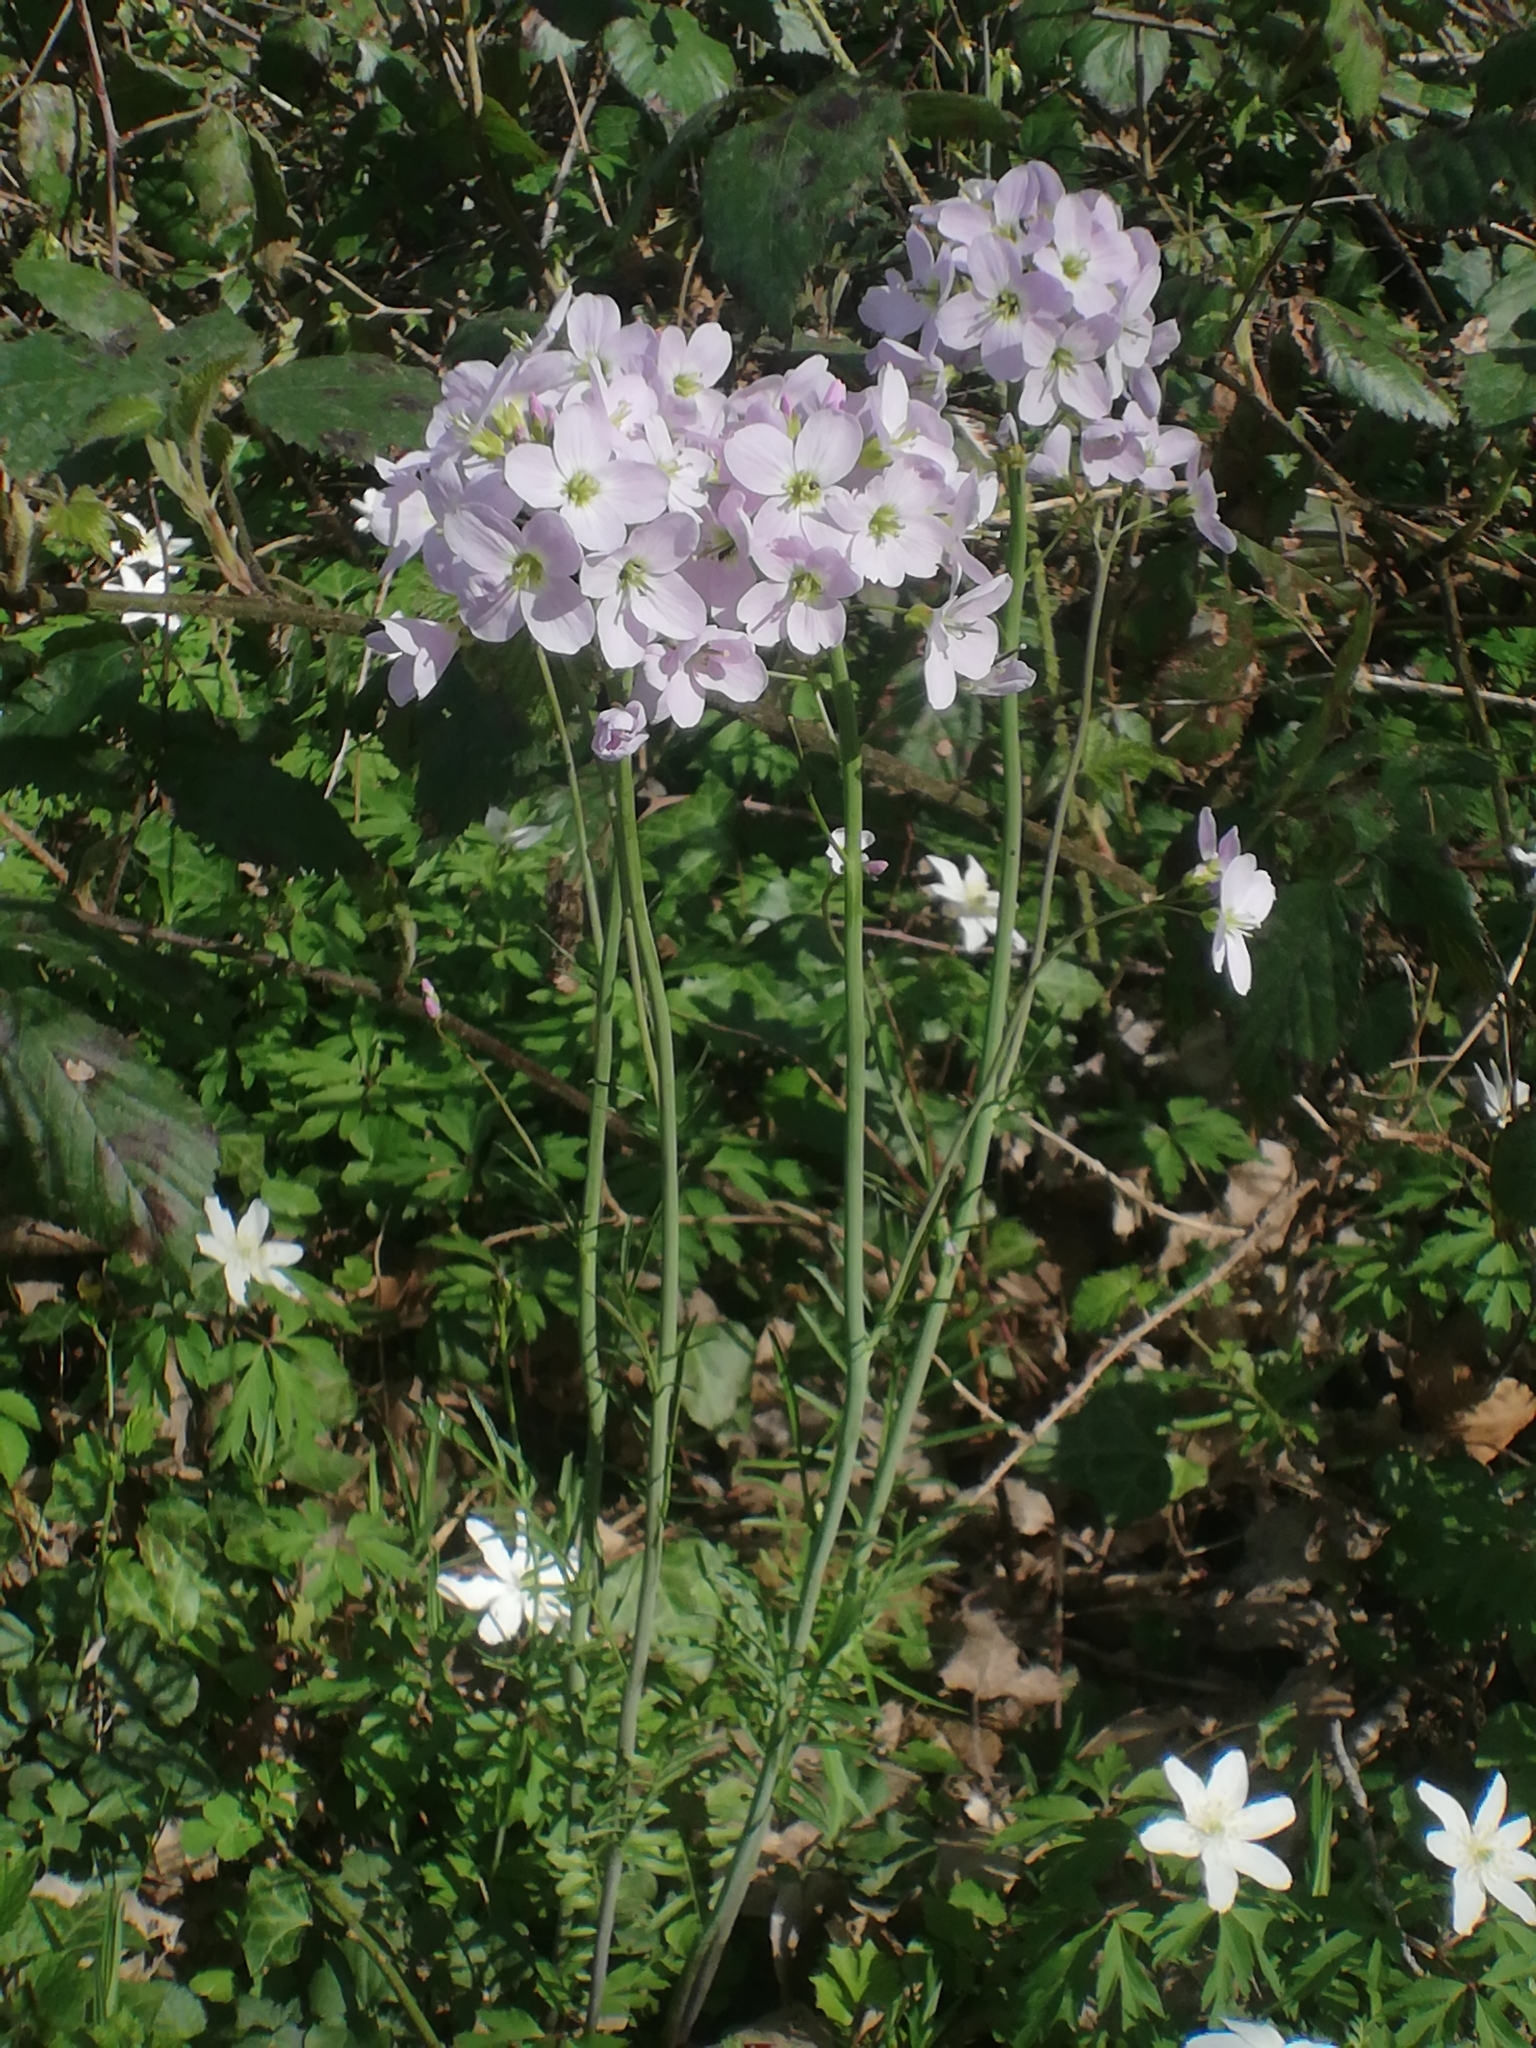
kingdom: Plantae
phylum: Tracheophyta
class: Magnoliopsida
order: Brassicales
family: Brassicaceae
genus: Cardamine
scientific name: Cardamine pratensis
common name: Cuckoo flower
